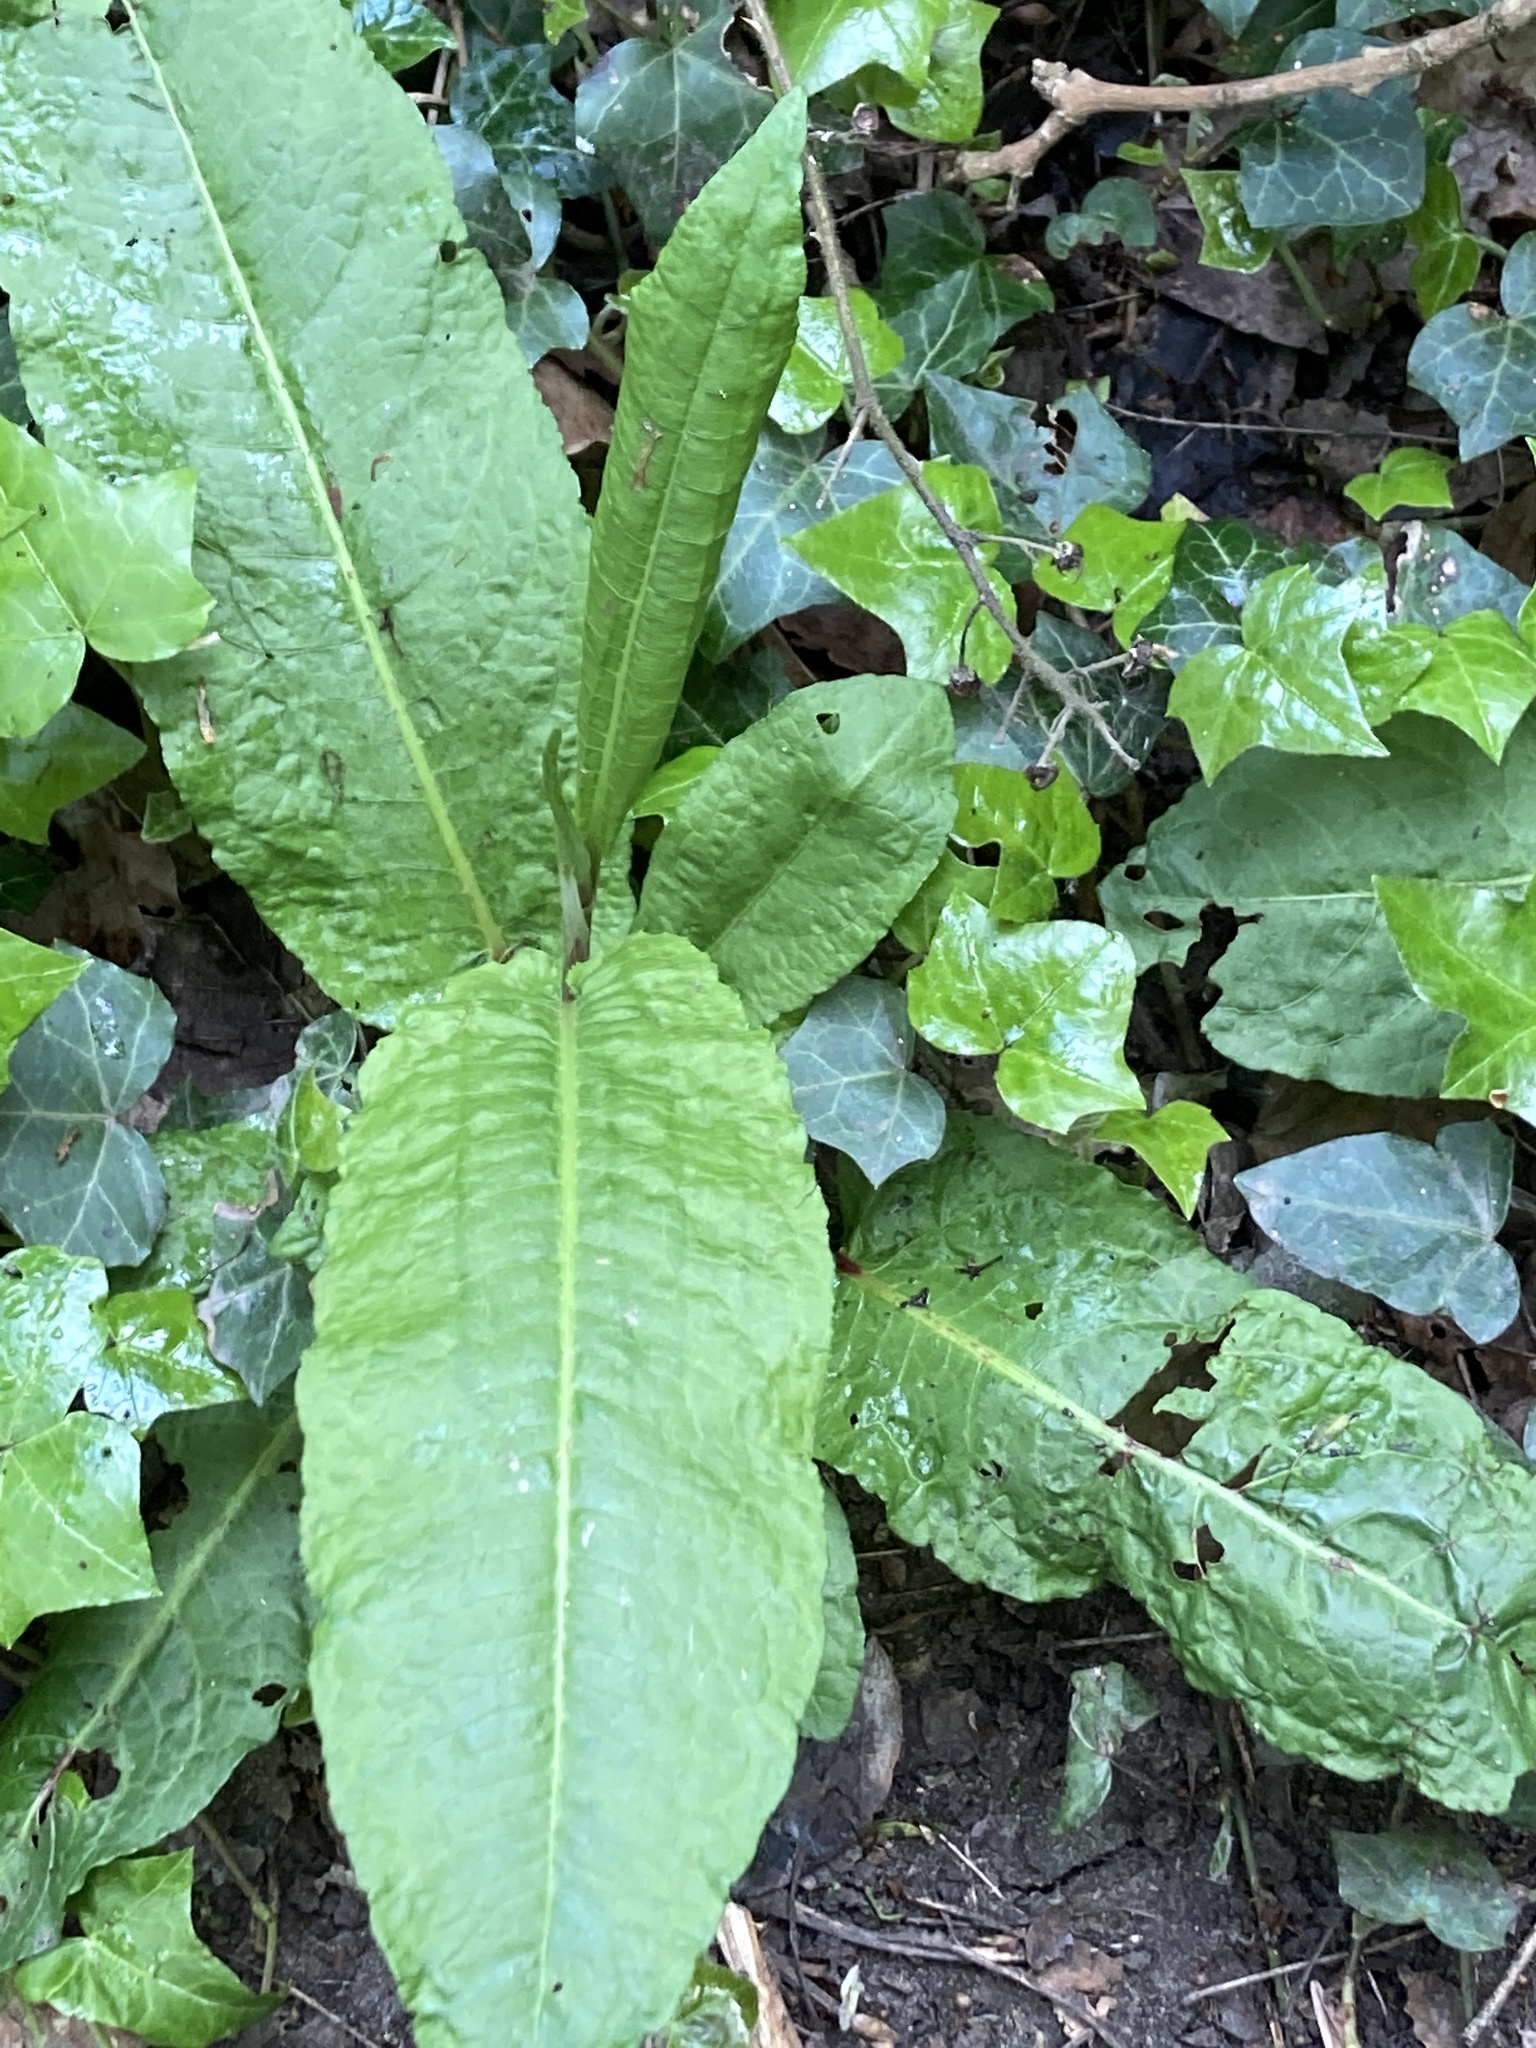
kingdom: Plantae
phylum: Tracheophyta
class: Magnoliopsida
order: Caryophyllales
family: Polygonaceae
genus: Rumex
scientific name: Rumex sanguineus
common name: Wood dock
